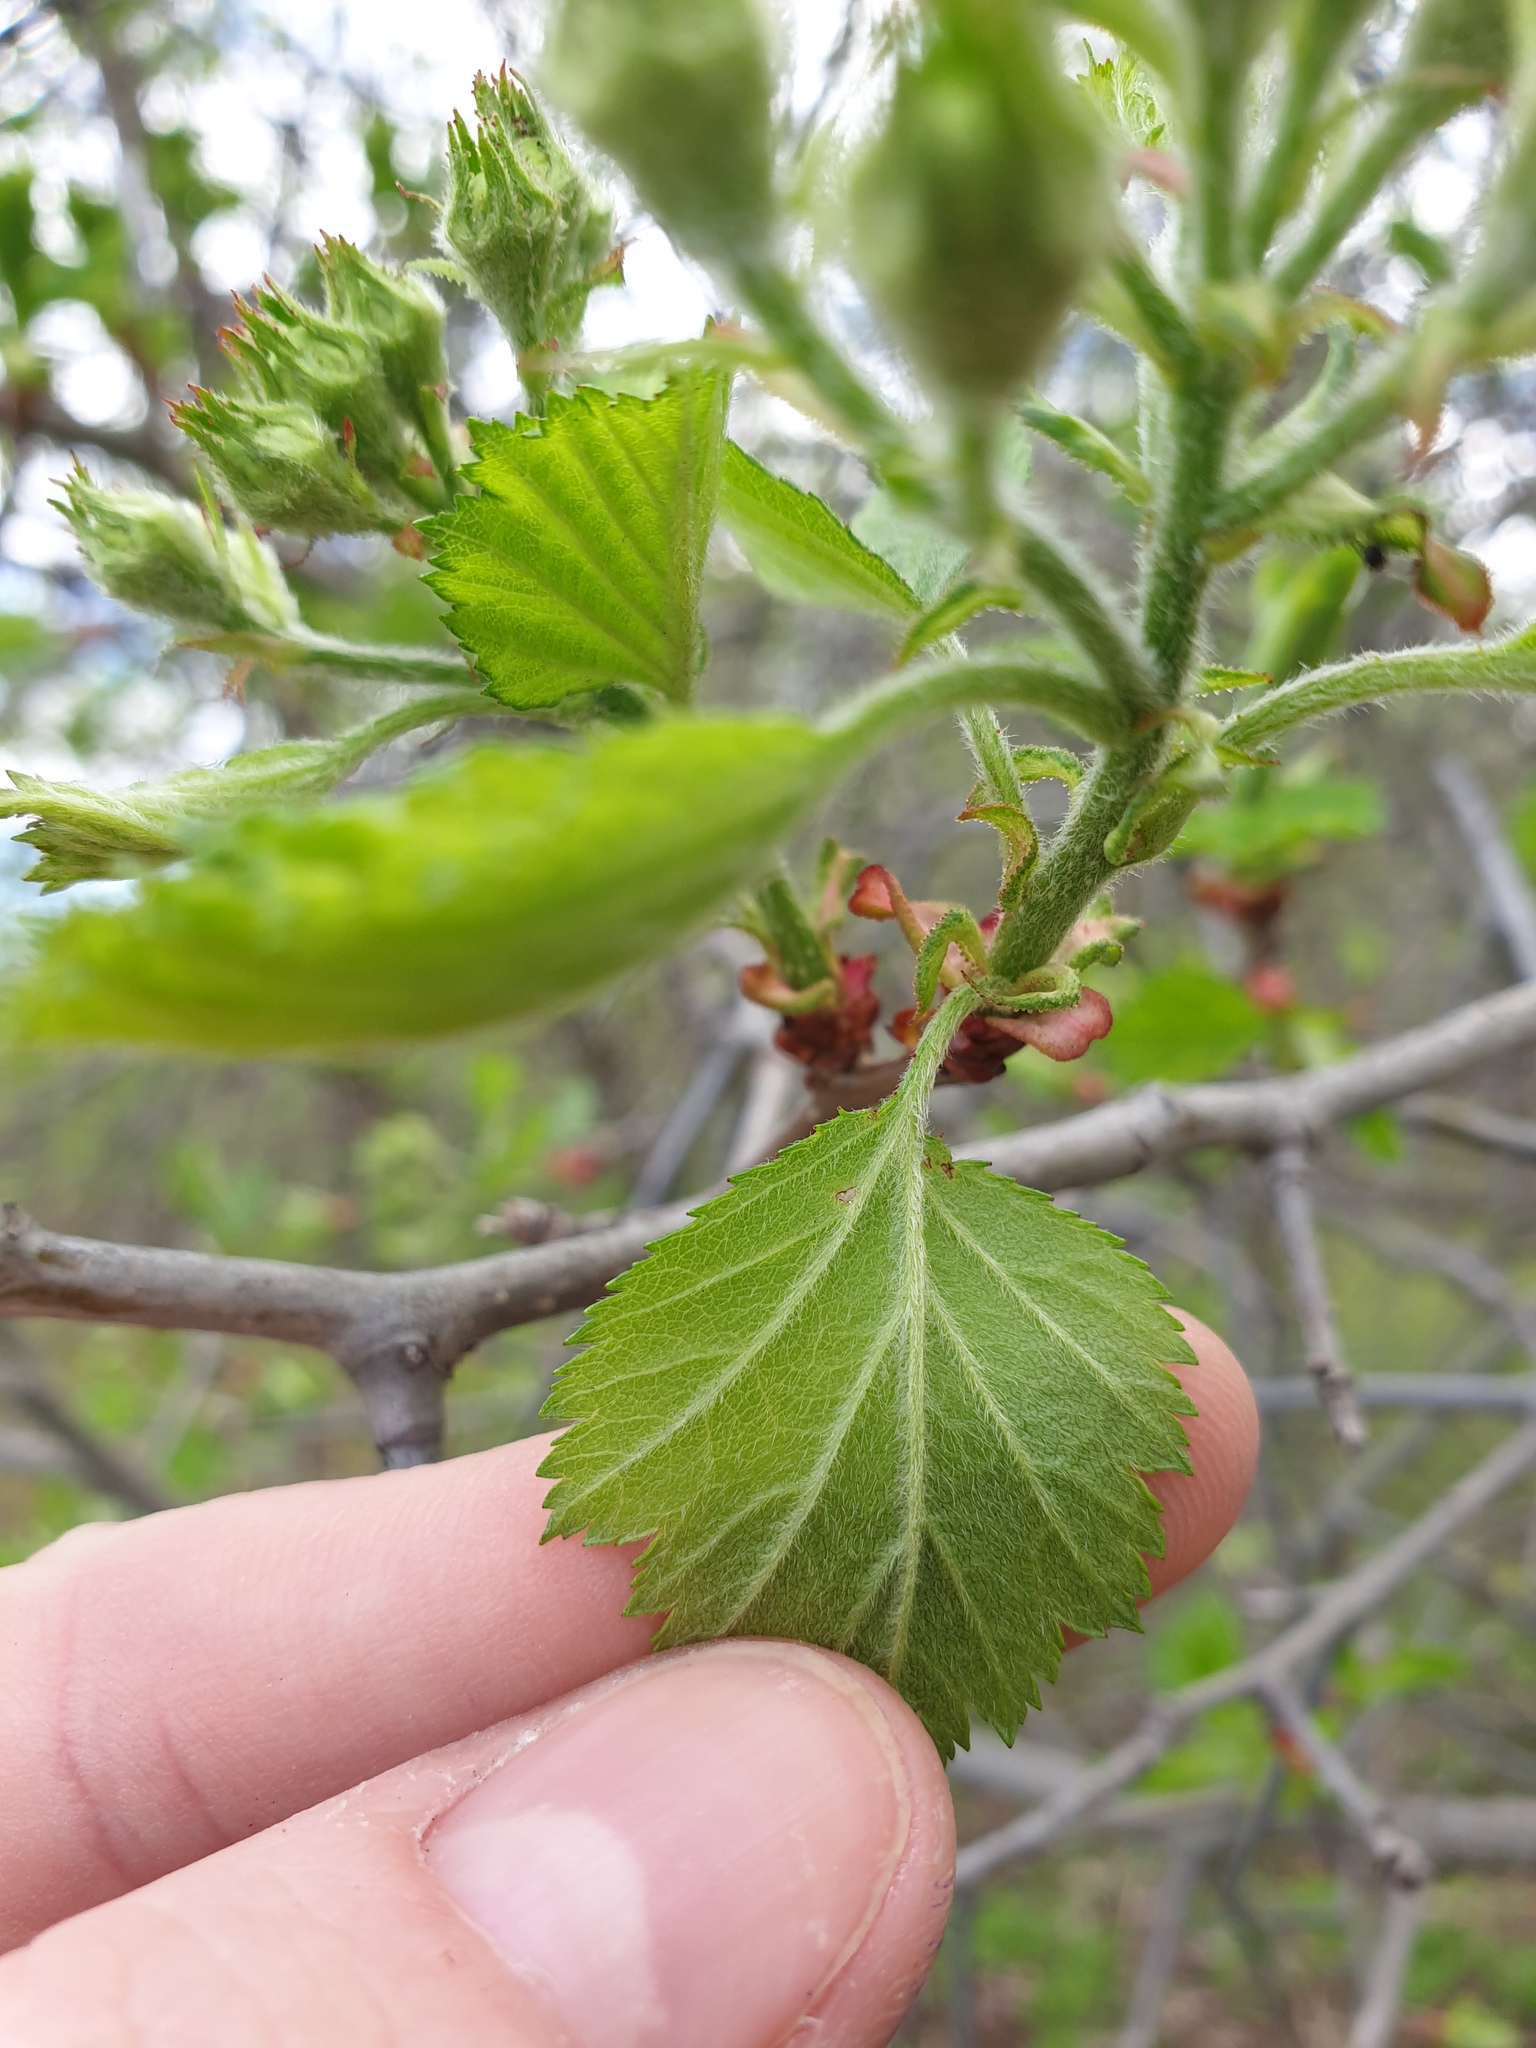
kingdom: Plantae
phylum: Tracheophyta
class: Magnoliopsida
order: Rosales
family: Rosaceae
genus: Crataegus
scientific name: Crataegus submollis
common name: Hairy cockspurthorn
